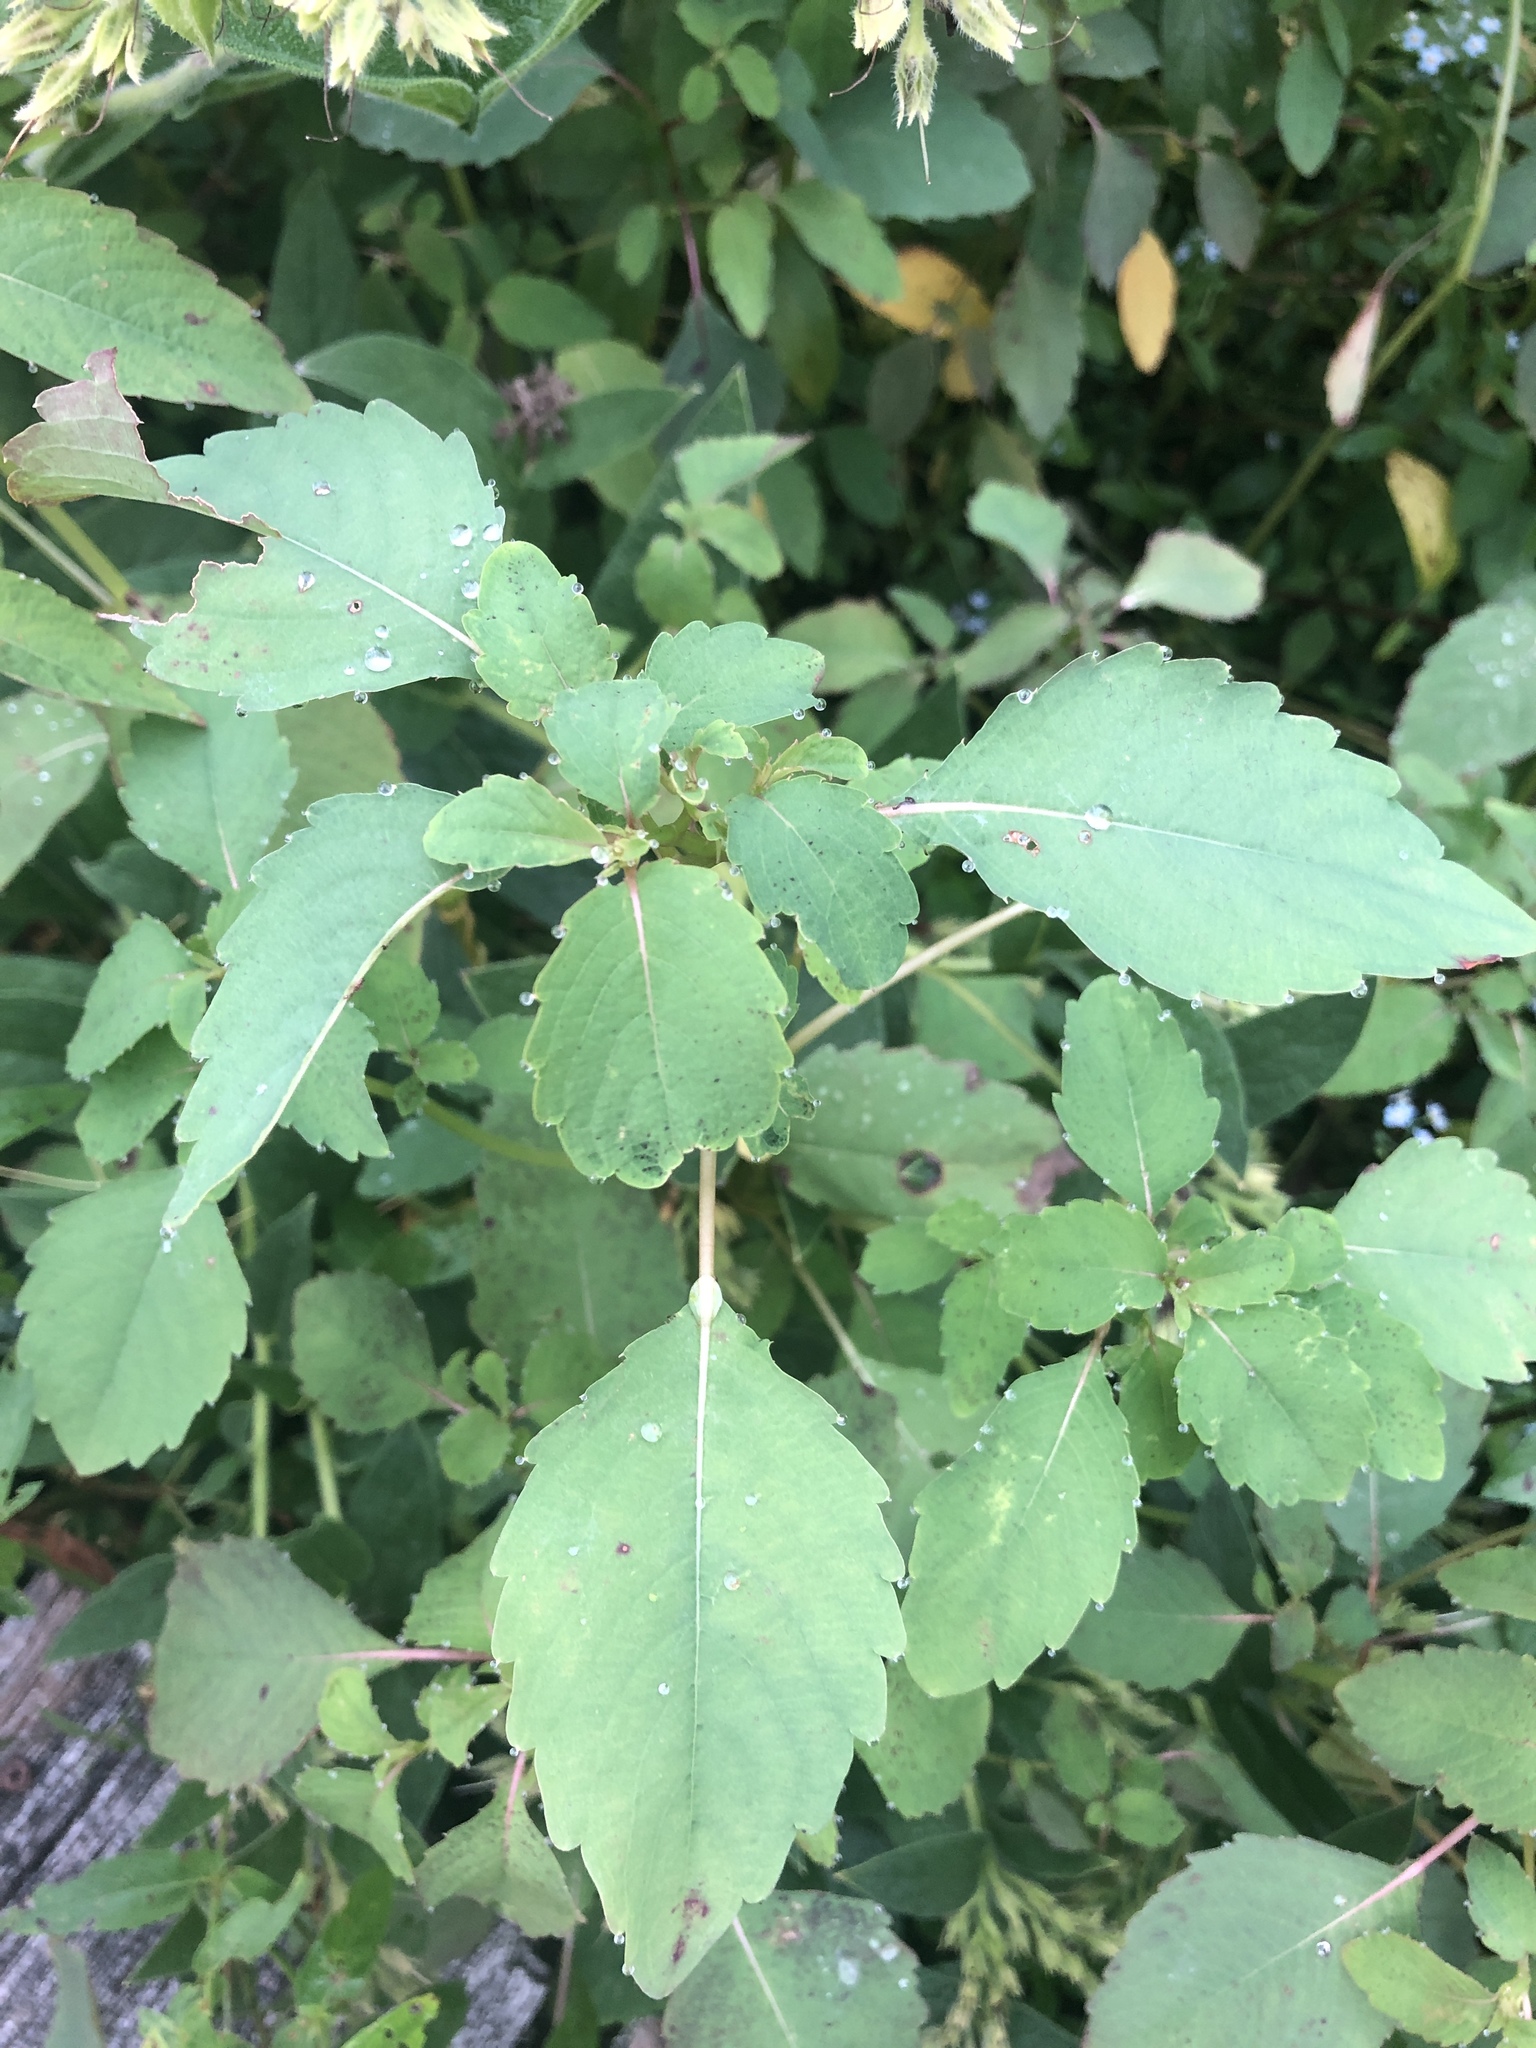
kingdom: Plantae
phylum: Tracheophyta
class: Magnoliopsida
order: Ericales
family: Balsaminaceae
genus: Impatiens
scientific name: Impatiens capensis
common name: Orange balsam
